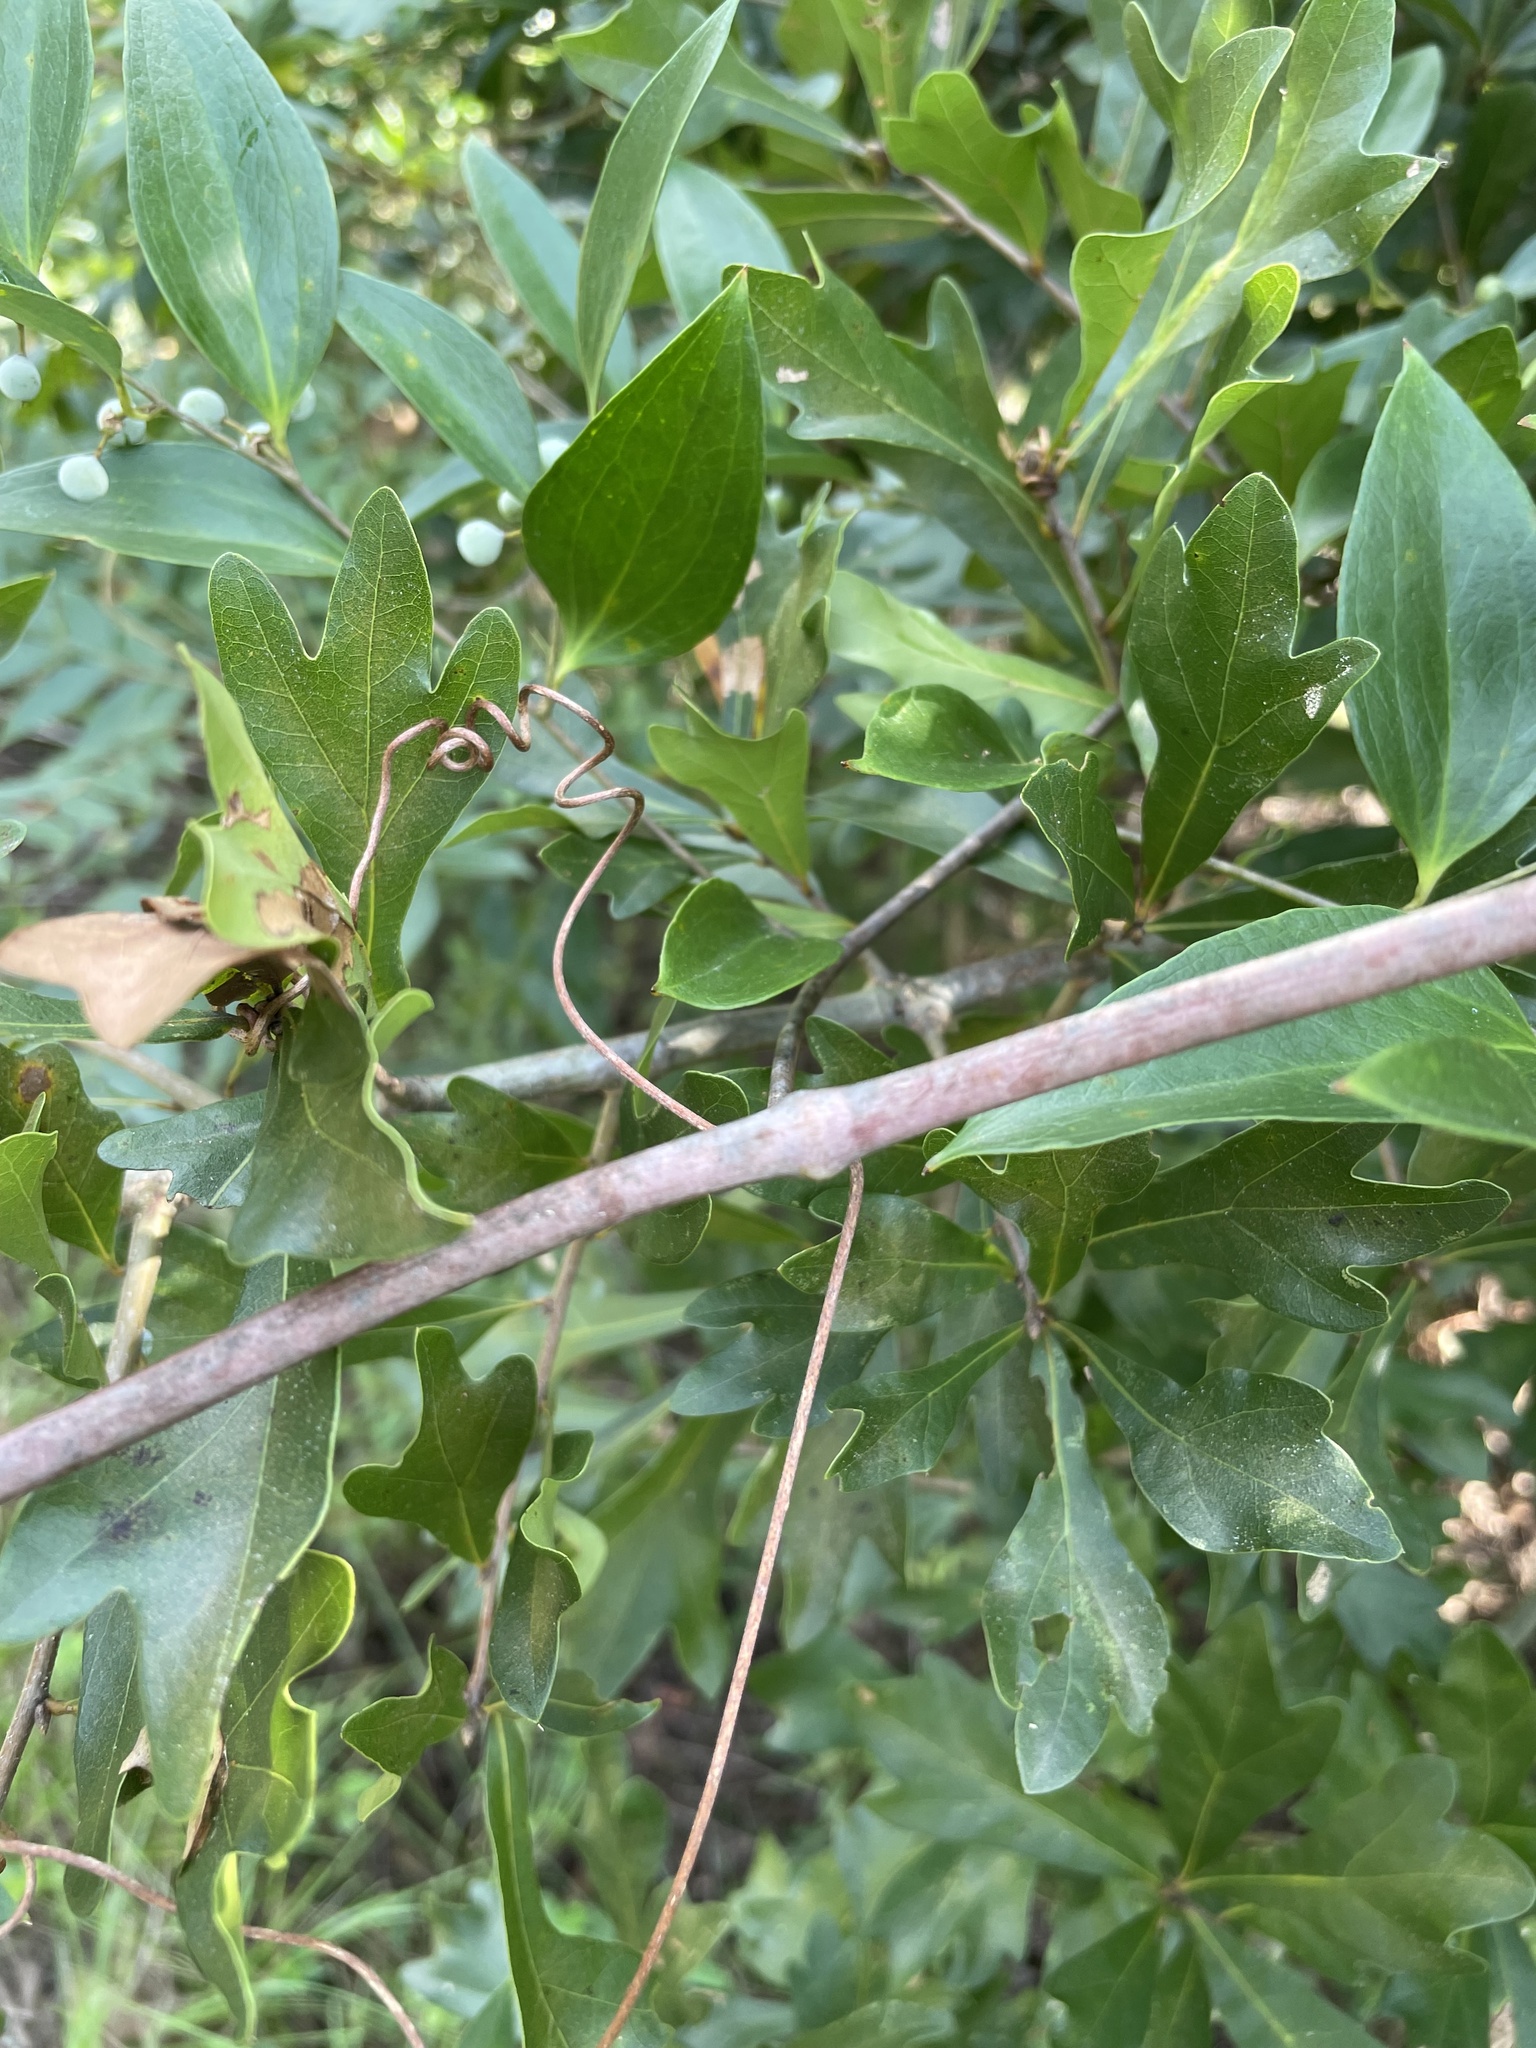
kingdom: Plantae
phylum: Tracheophyta
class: Liliopsida
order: Liliales
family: Smilacaceae
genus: Smilax
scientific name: Smilax maritima
